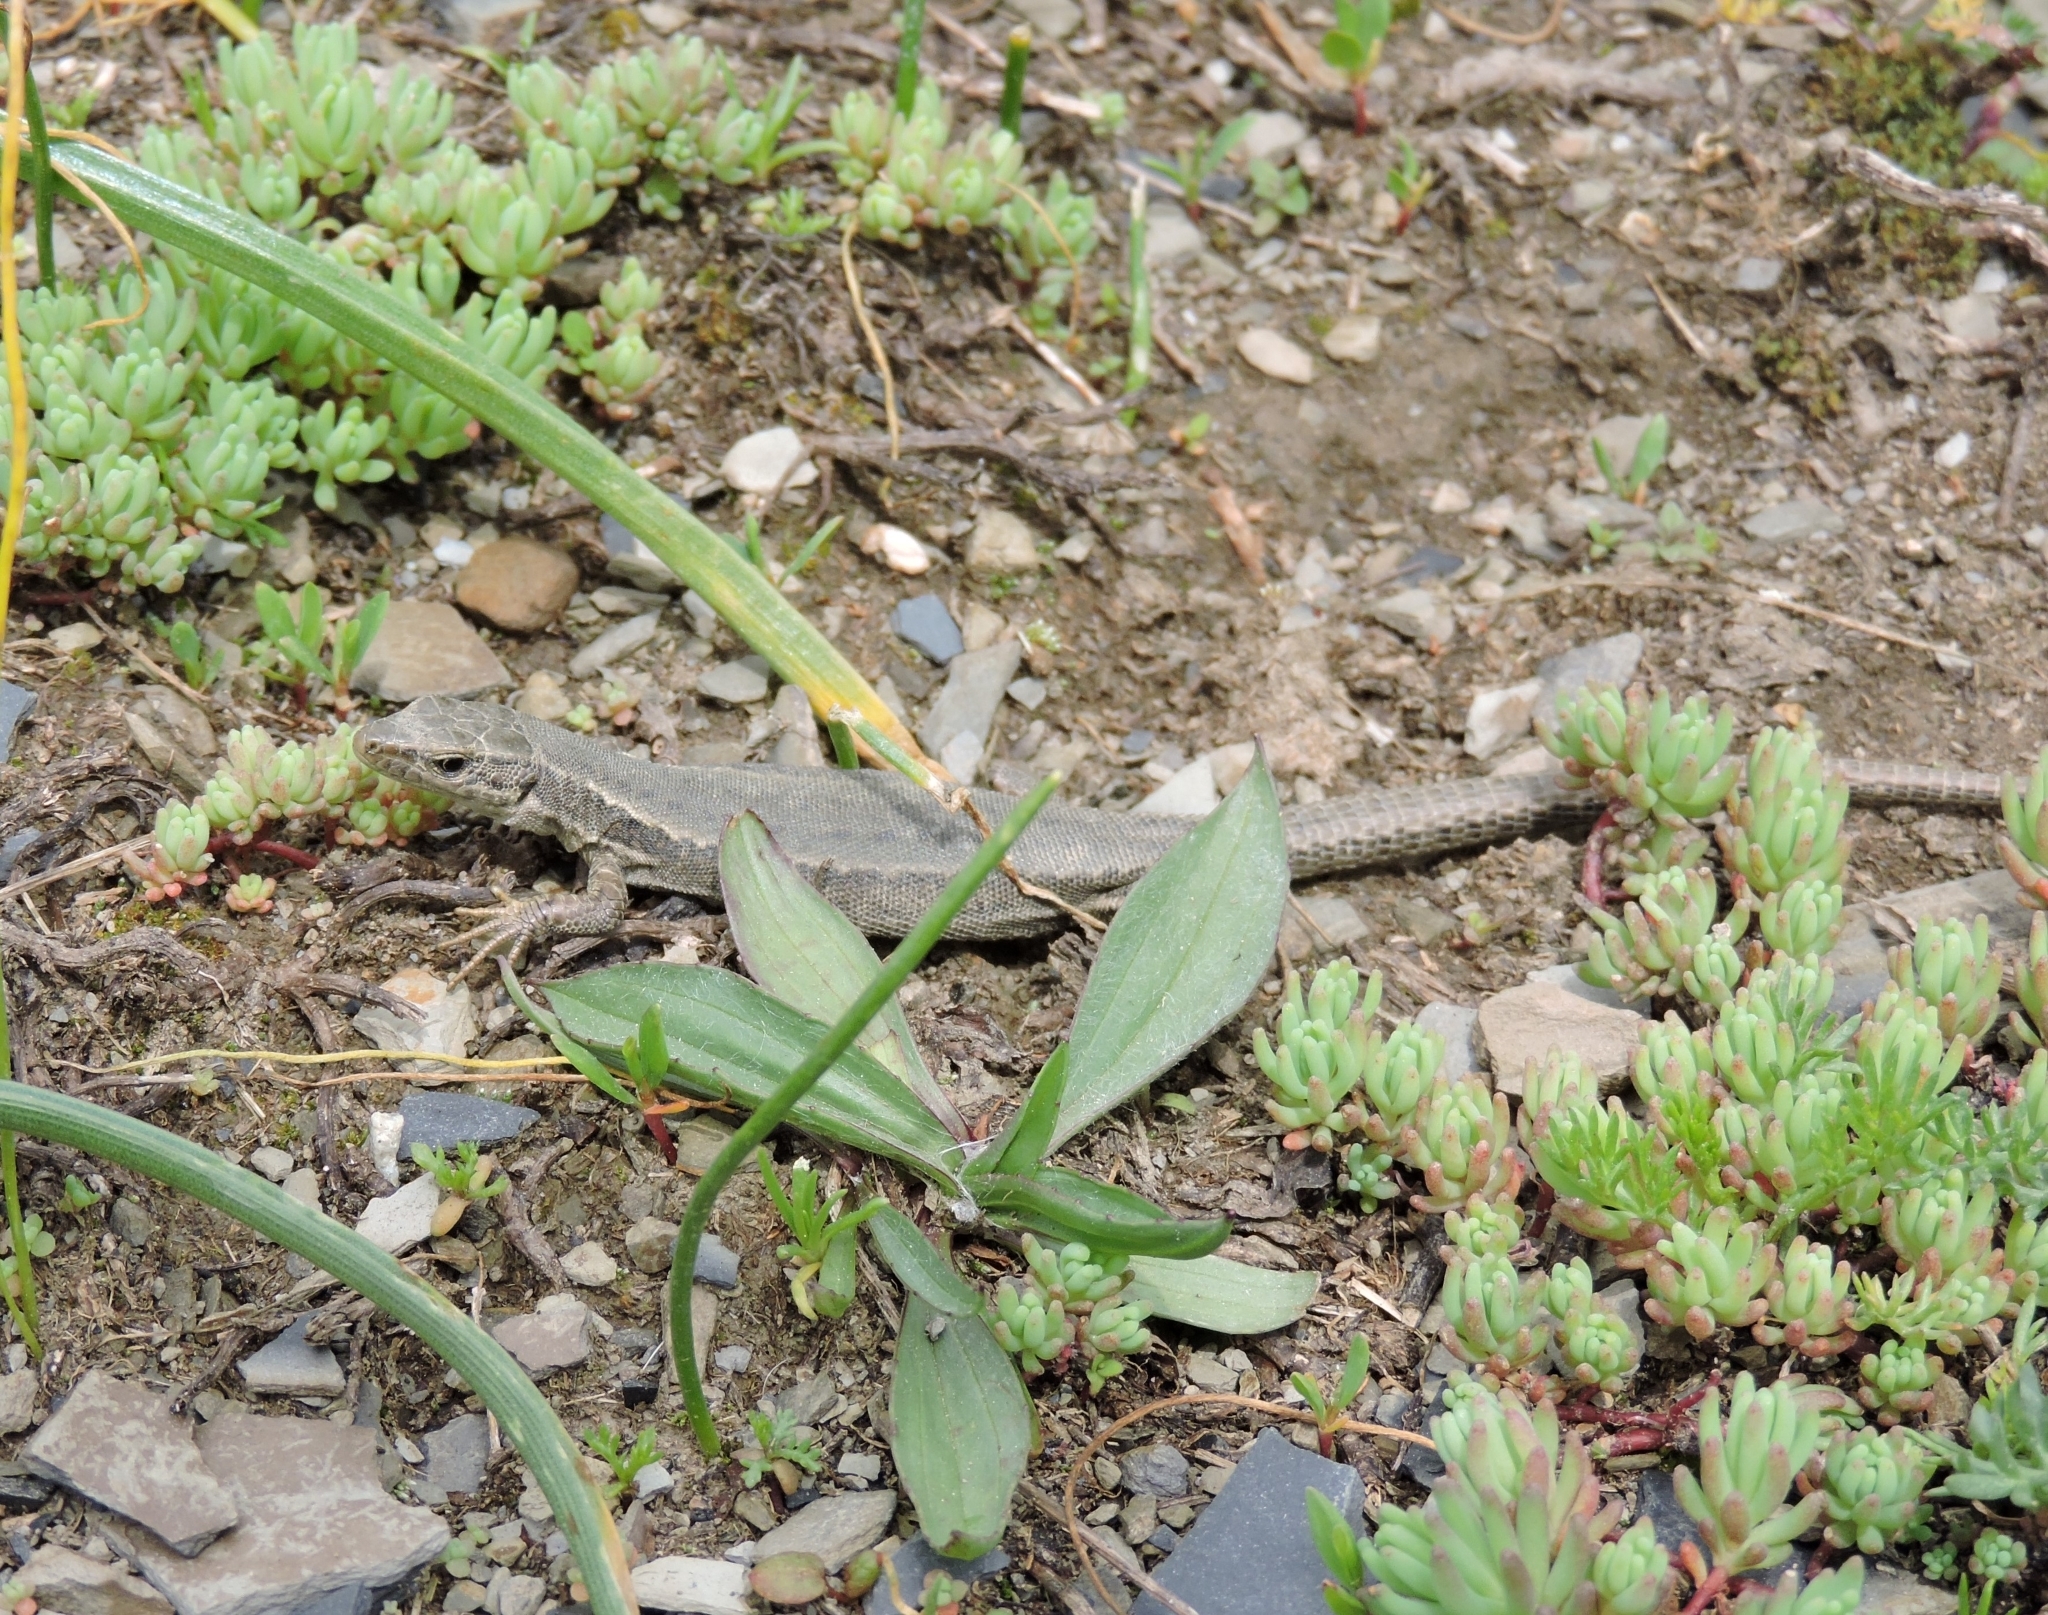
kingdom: Animalia
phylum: Chordata
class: Squamata
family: Lacertidae
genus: Darevskia
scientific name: Darevskia caucasica
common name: Caucasian llzard
